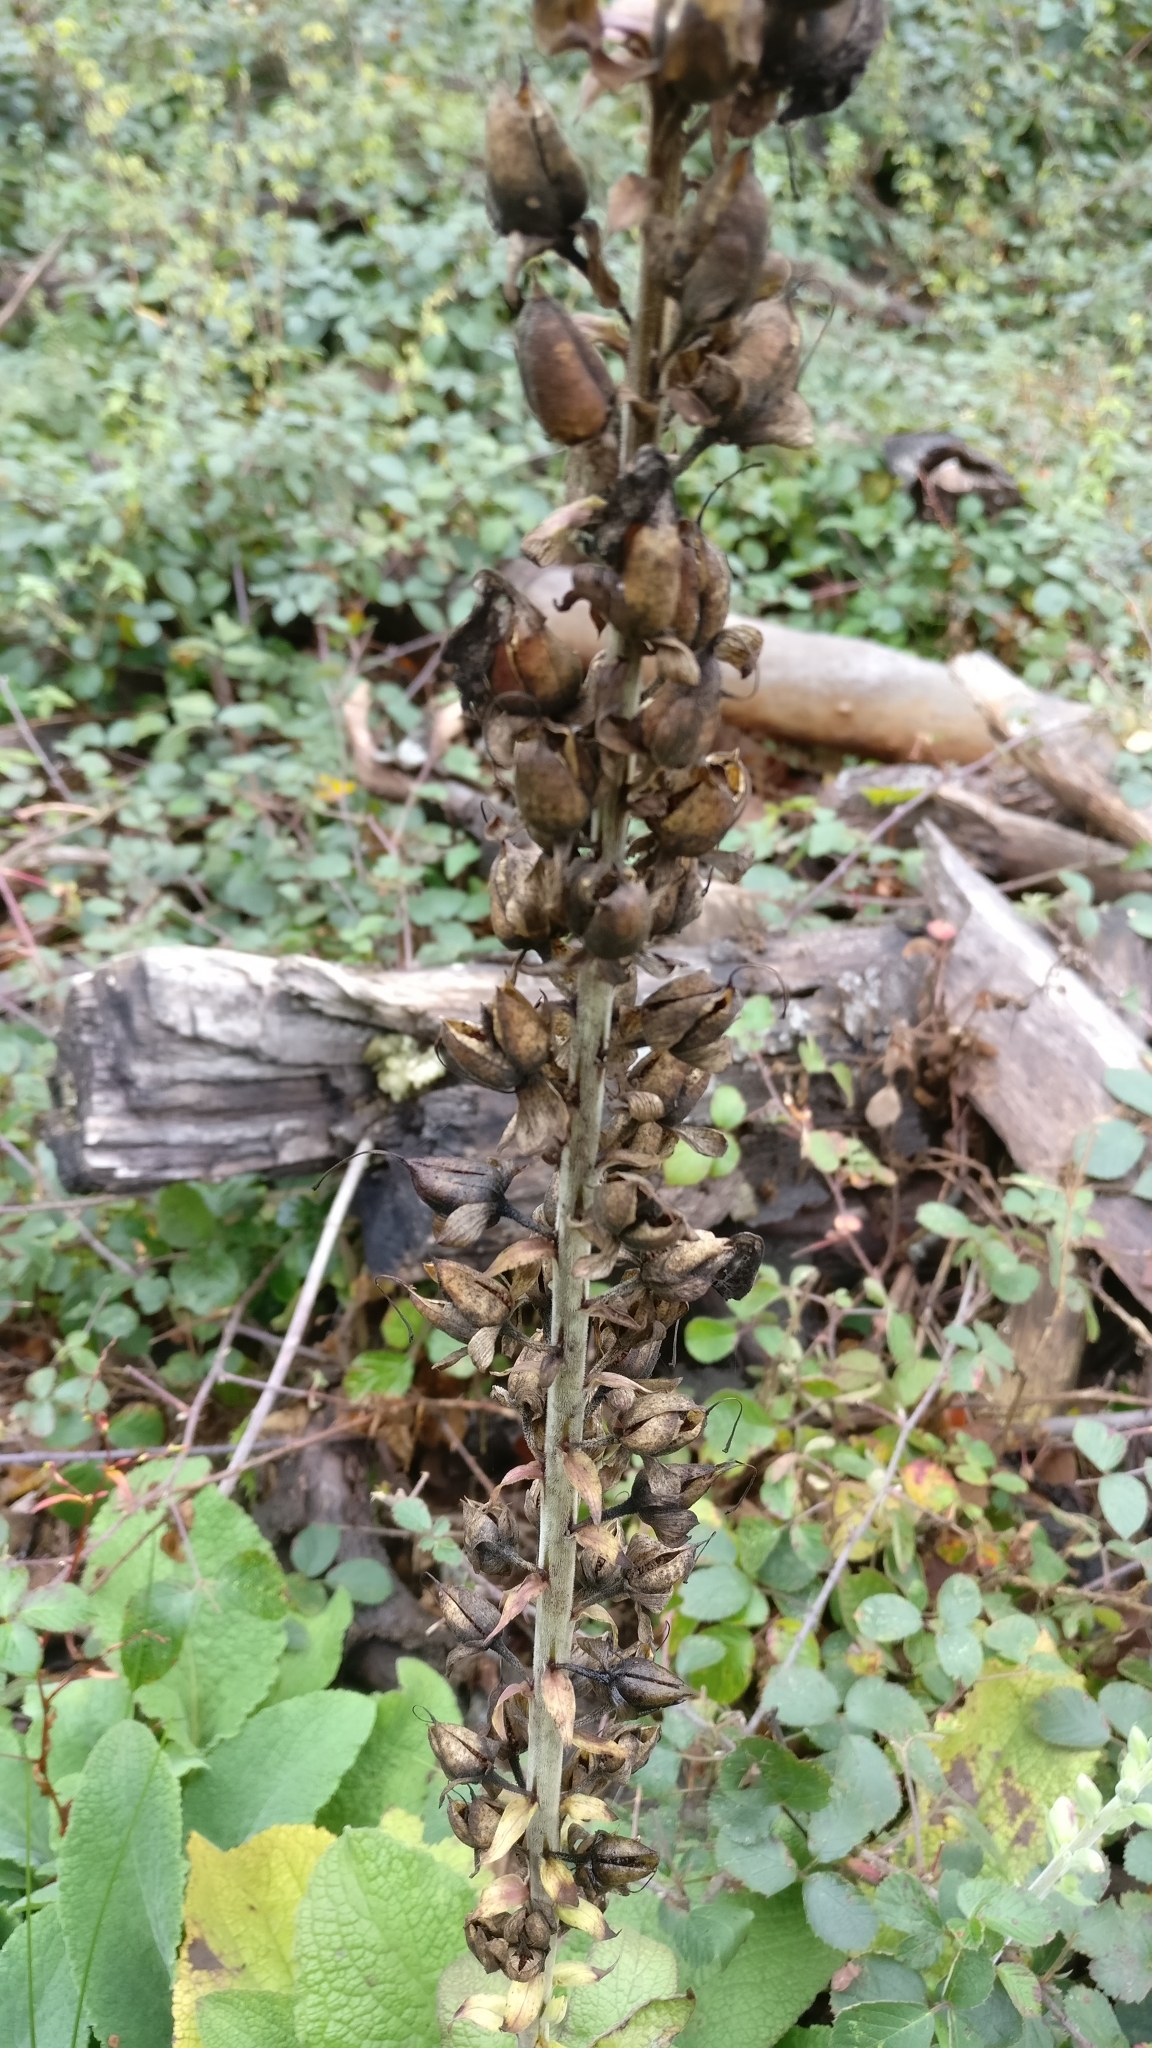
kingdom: Plantae
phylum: Tracheophyta
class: Magnoliopsida
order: Lamiales
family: Plantaginaceae
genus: Digitalis
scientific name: Digitalis purpurea
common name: Foxglove
